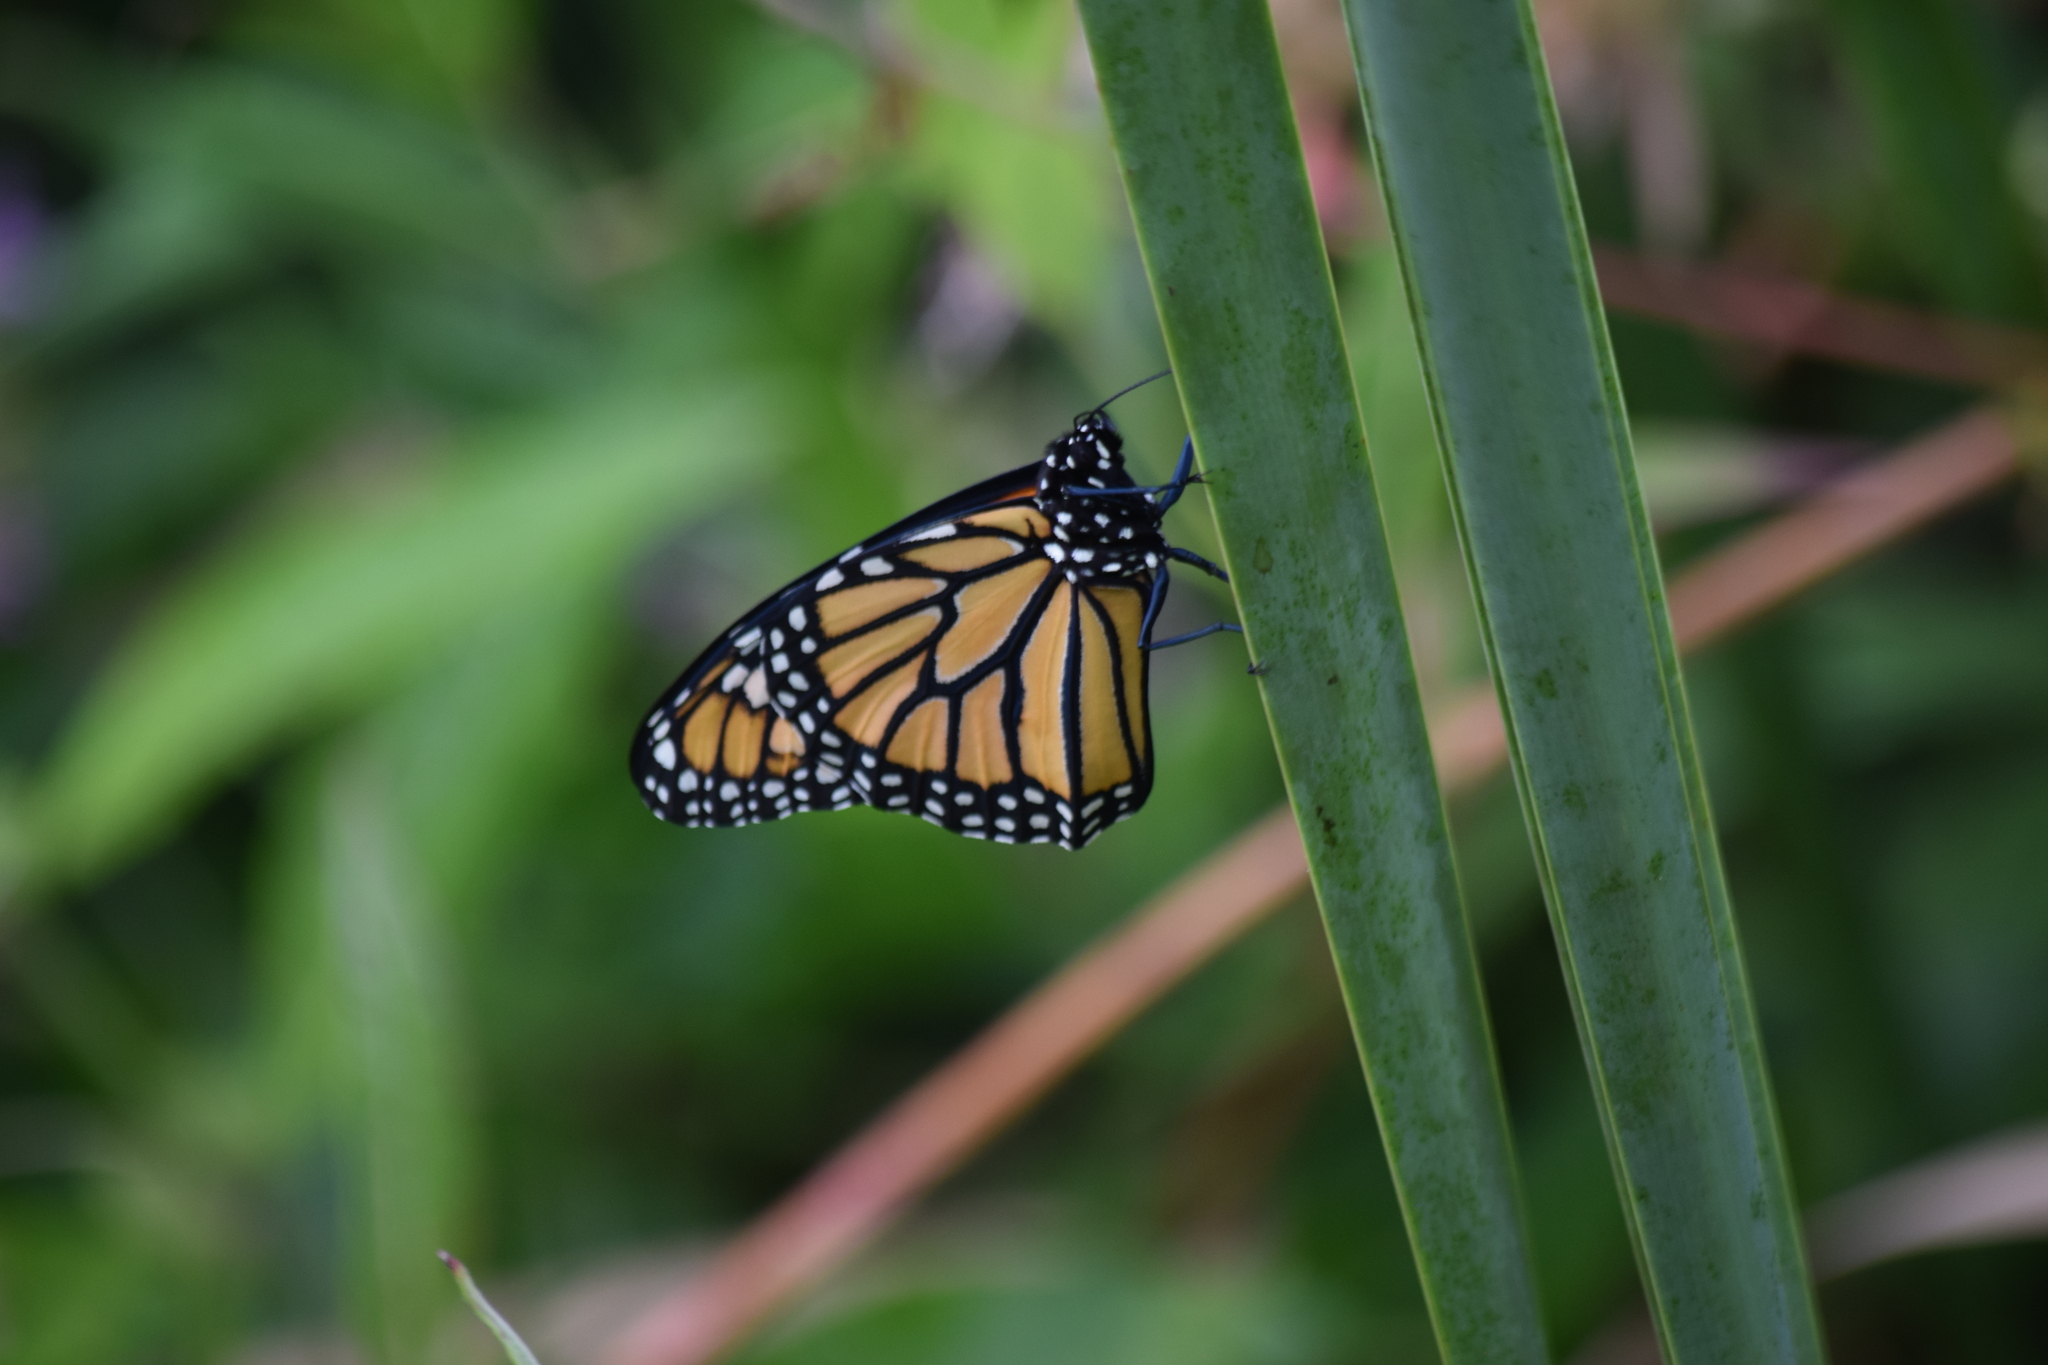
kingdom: Animalia
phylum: Arthropoda
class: Insecta
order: Lepidoptera
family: Nymphalidae
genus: Danaus
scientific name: Danaus plexippus
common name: Monarch
